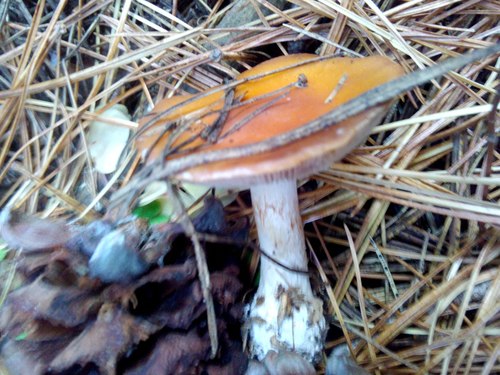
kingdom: Fungi
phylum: Basidiomycota
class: Agaricomycetes
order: Agaricales
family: Cortinariaceae
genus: Cortinarius
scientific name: Cortinarius
